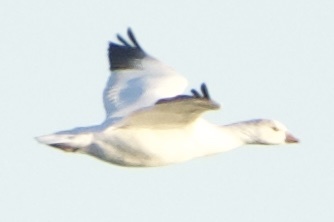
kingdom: Animalia
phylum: Chordata
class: Aves
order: Anseriformes
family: Anatidae
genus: Anser
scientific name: Anser rossii
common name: Ross's goose
